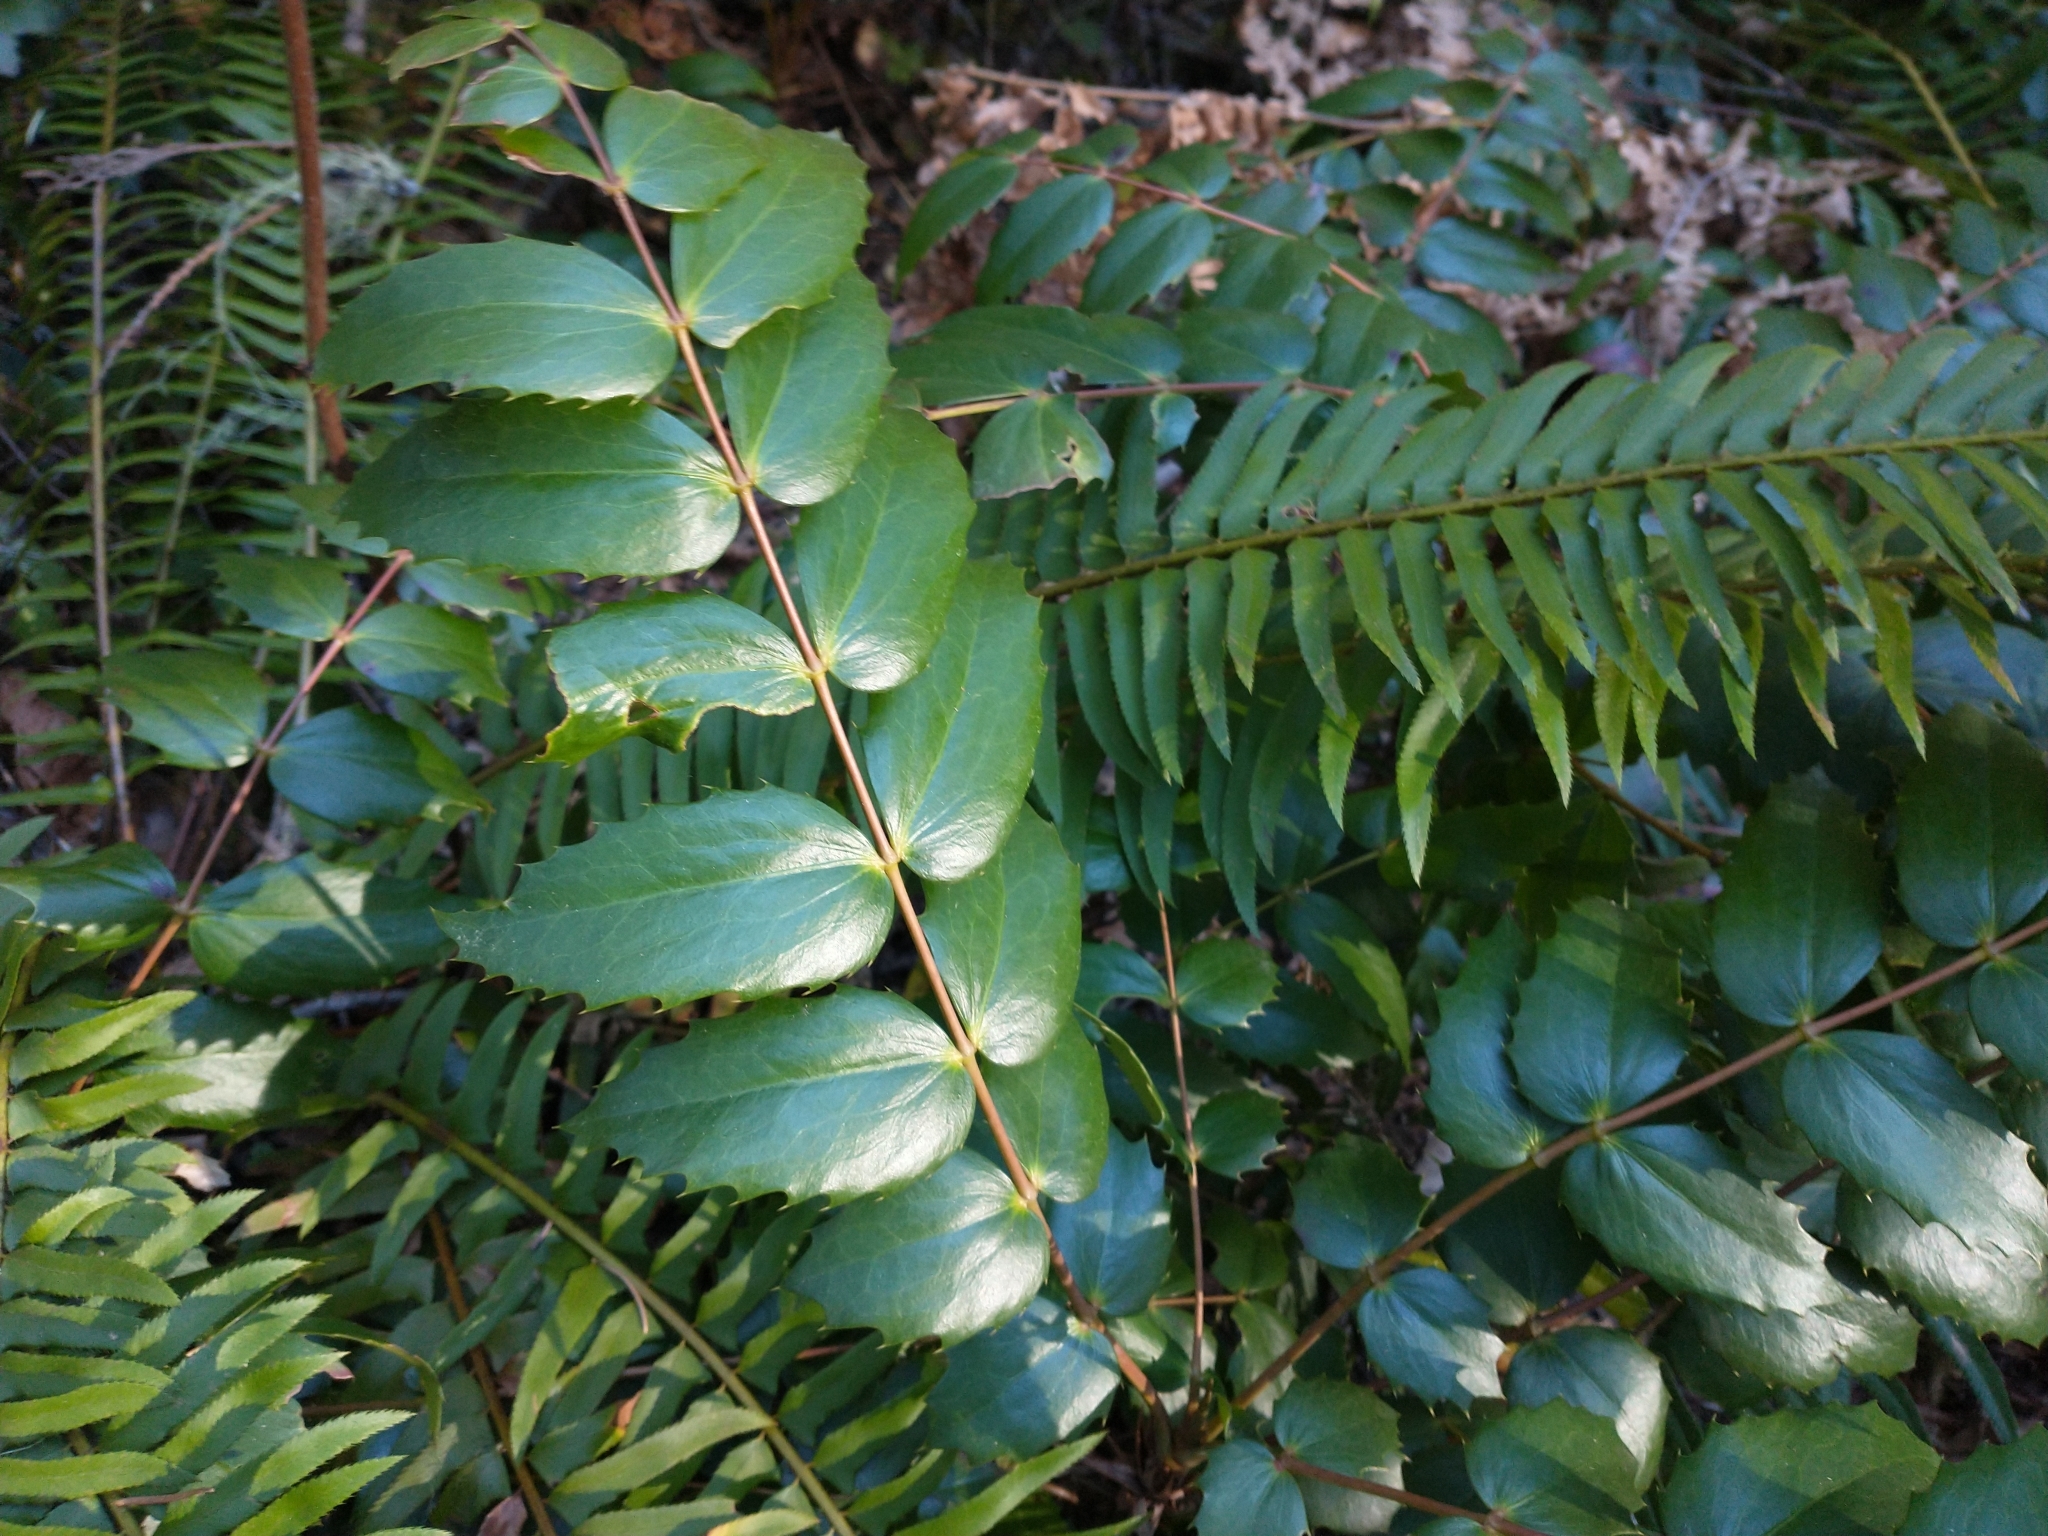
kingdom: Plantae
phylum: Tracheophyta
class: Magnoliopsida
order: Ranunculales
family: Berberidaceae
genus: Mahonia
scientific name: Mahonia nervosa
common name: Cascade oregon-grape
